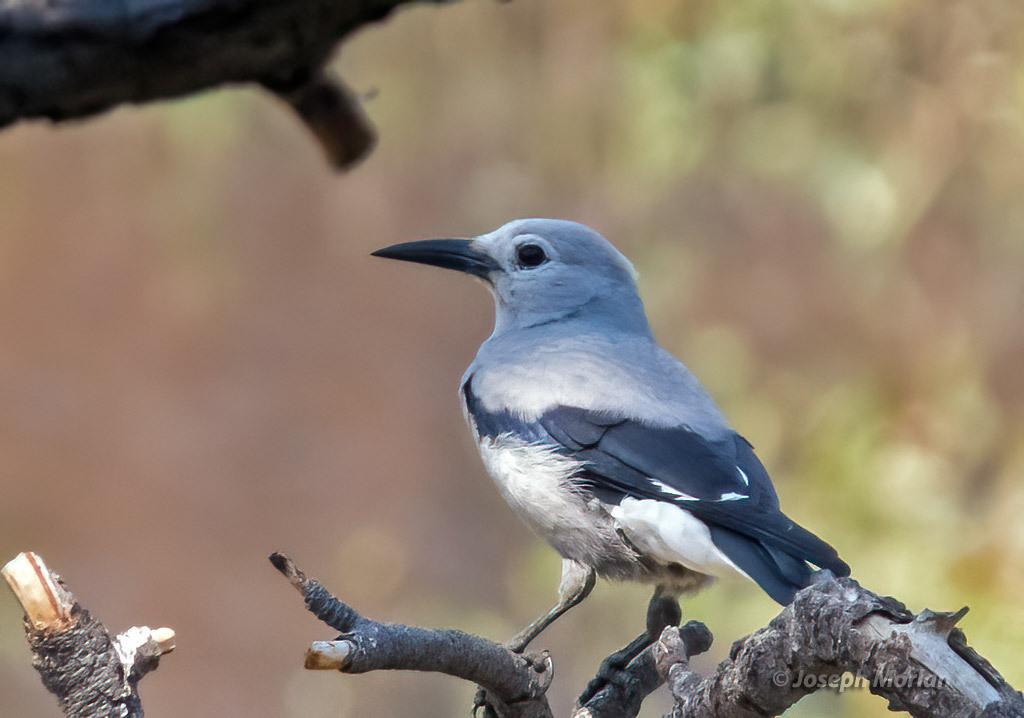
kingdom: Animalia
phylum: Chordata
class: Aves
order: Passeriformes
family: Corvidae
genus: Nucifraga
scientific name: Nucifraga columbiana
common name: Clark's nutcracker
